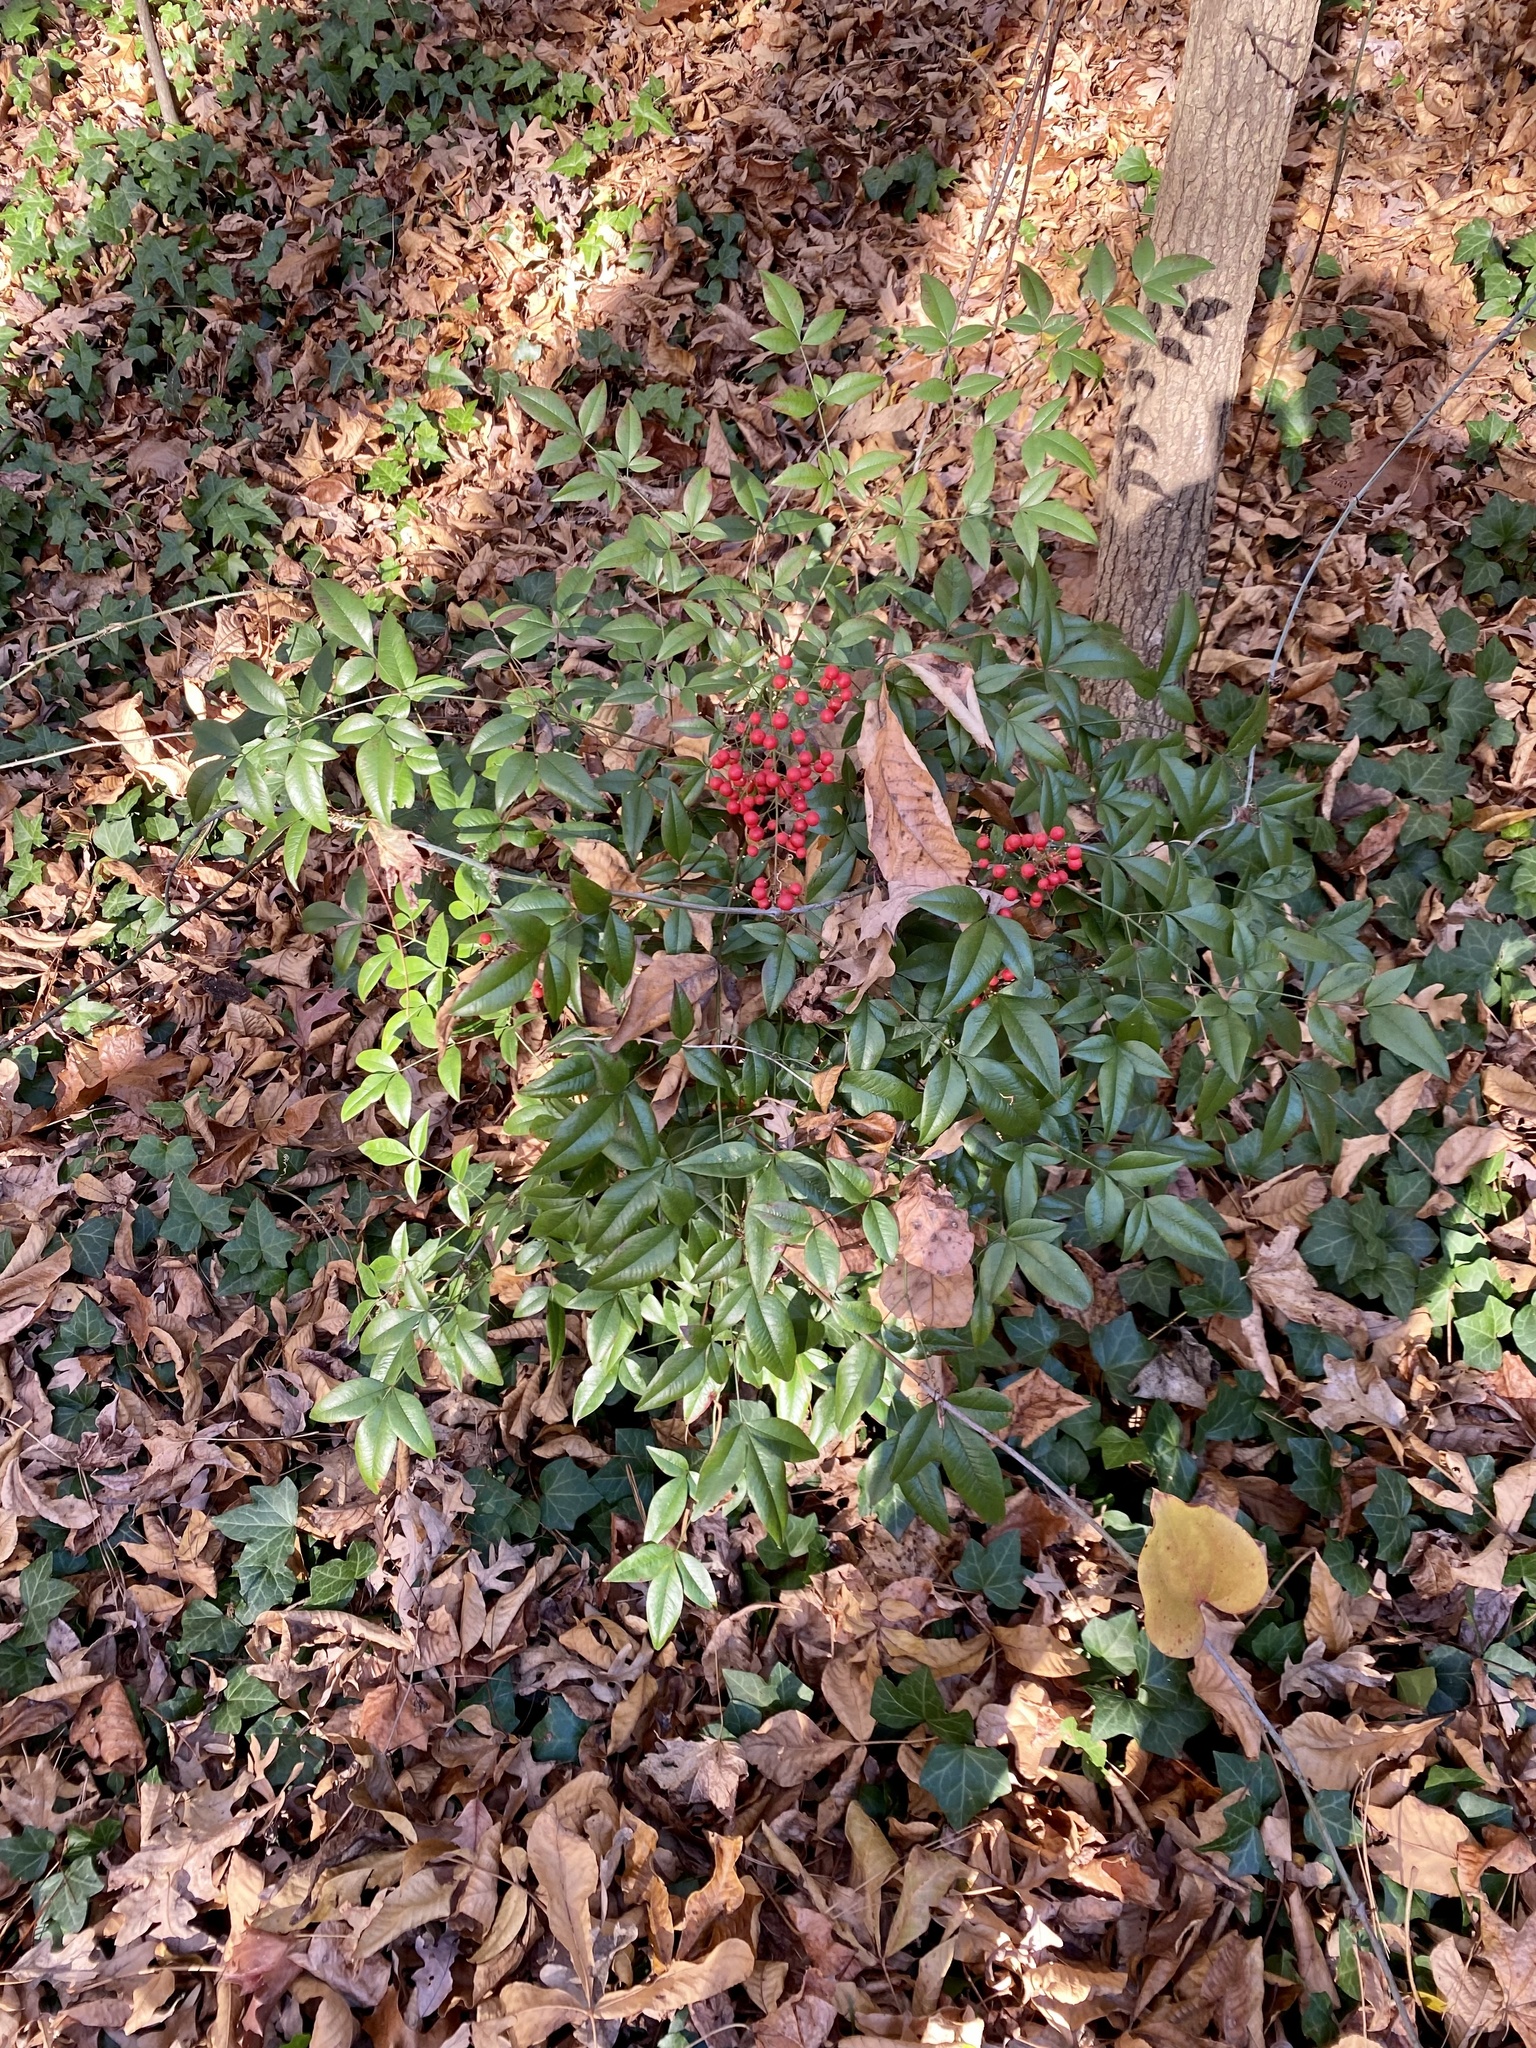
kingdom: Plantae
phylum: Tracheophyta
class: Magnoliopsida
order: Ranunculales
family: Berberidaceae
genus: Nandina
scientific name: Nandina domestica
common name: Sacred bamboo
